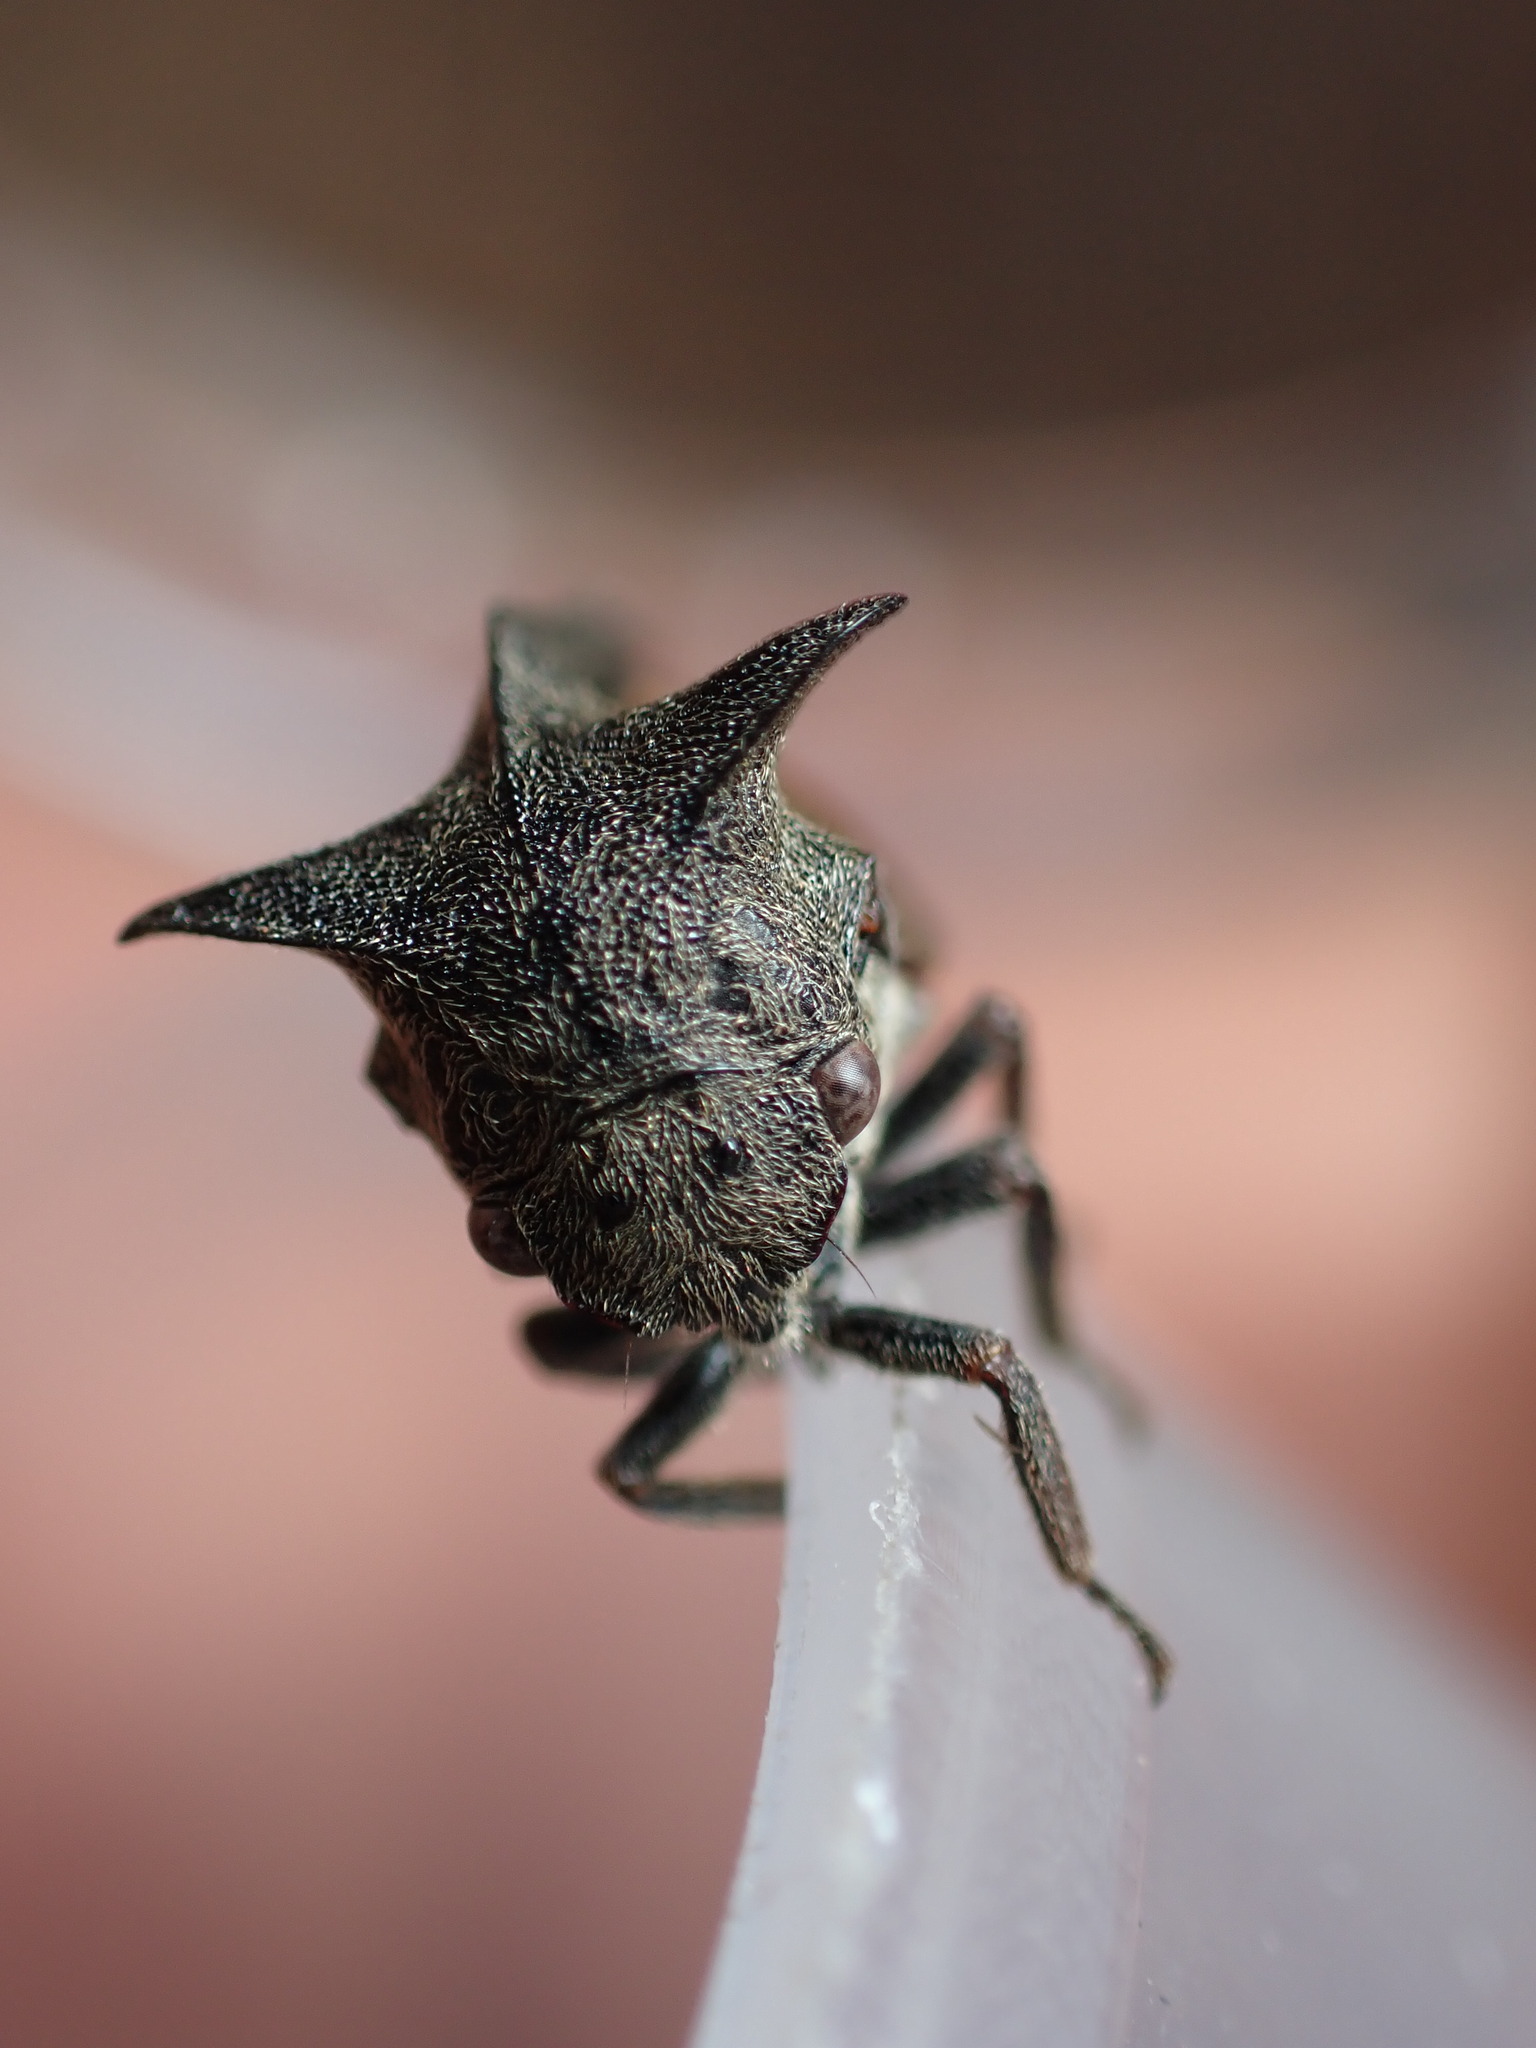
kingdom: Animalia
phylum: Arthropoda
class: Insecta
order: Hemiptera
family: Membracidae
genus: Centrotus
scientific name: Centrotus cornuta
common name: Treehopper
